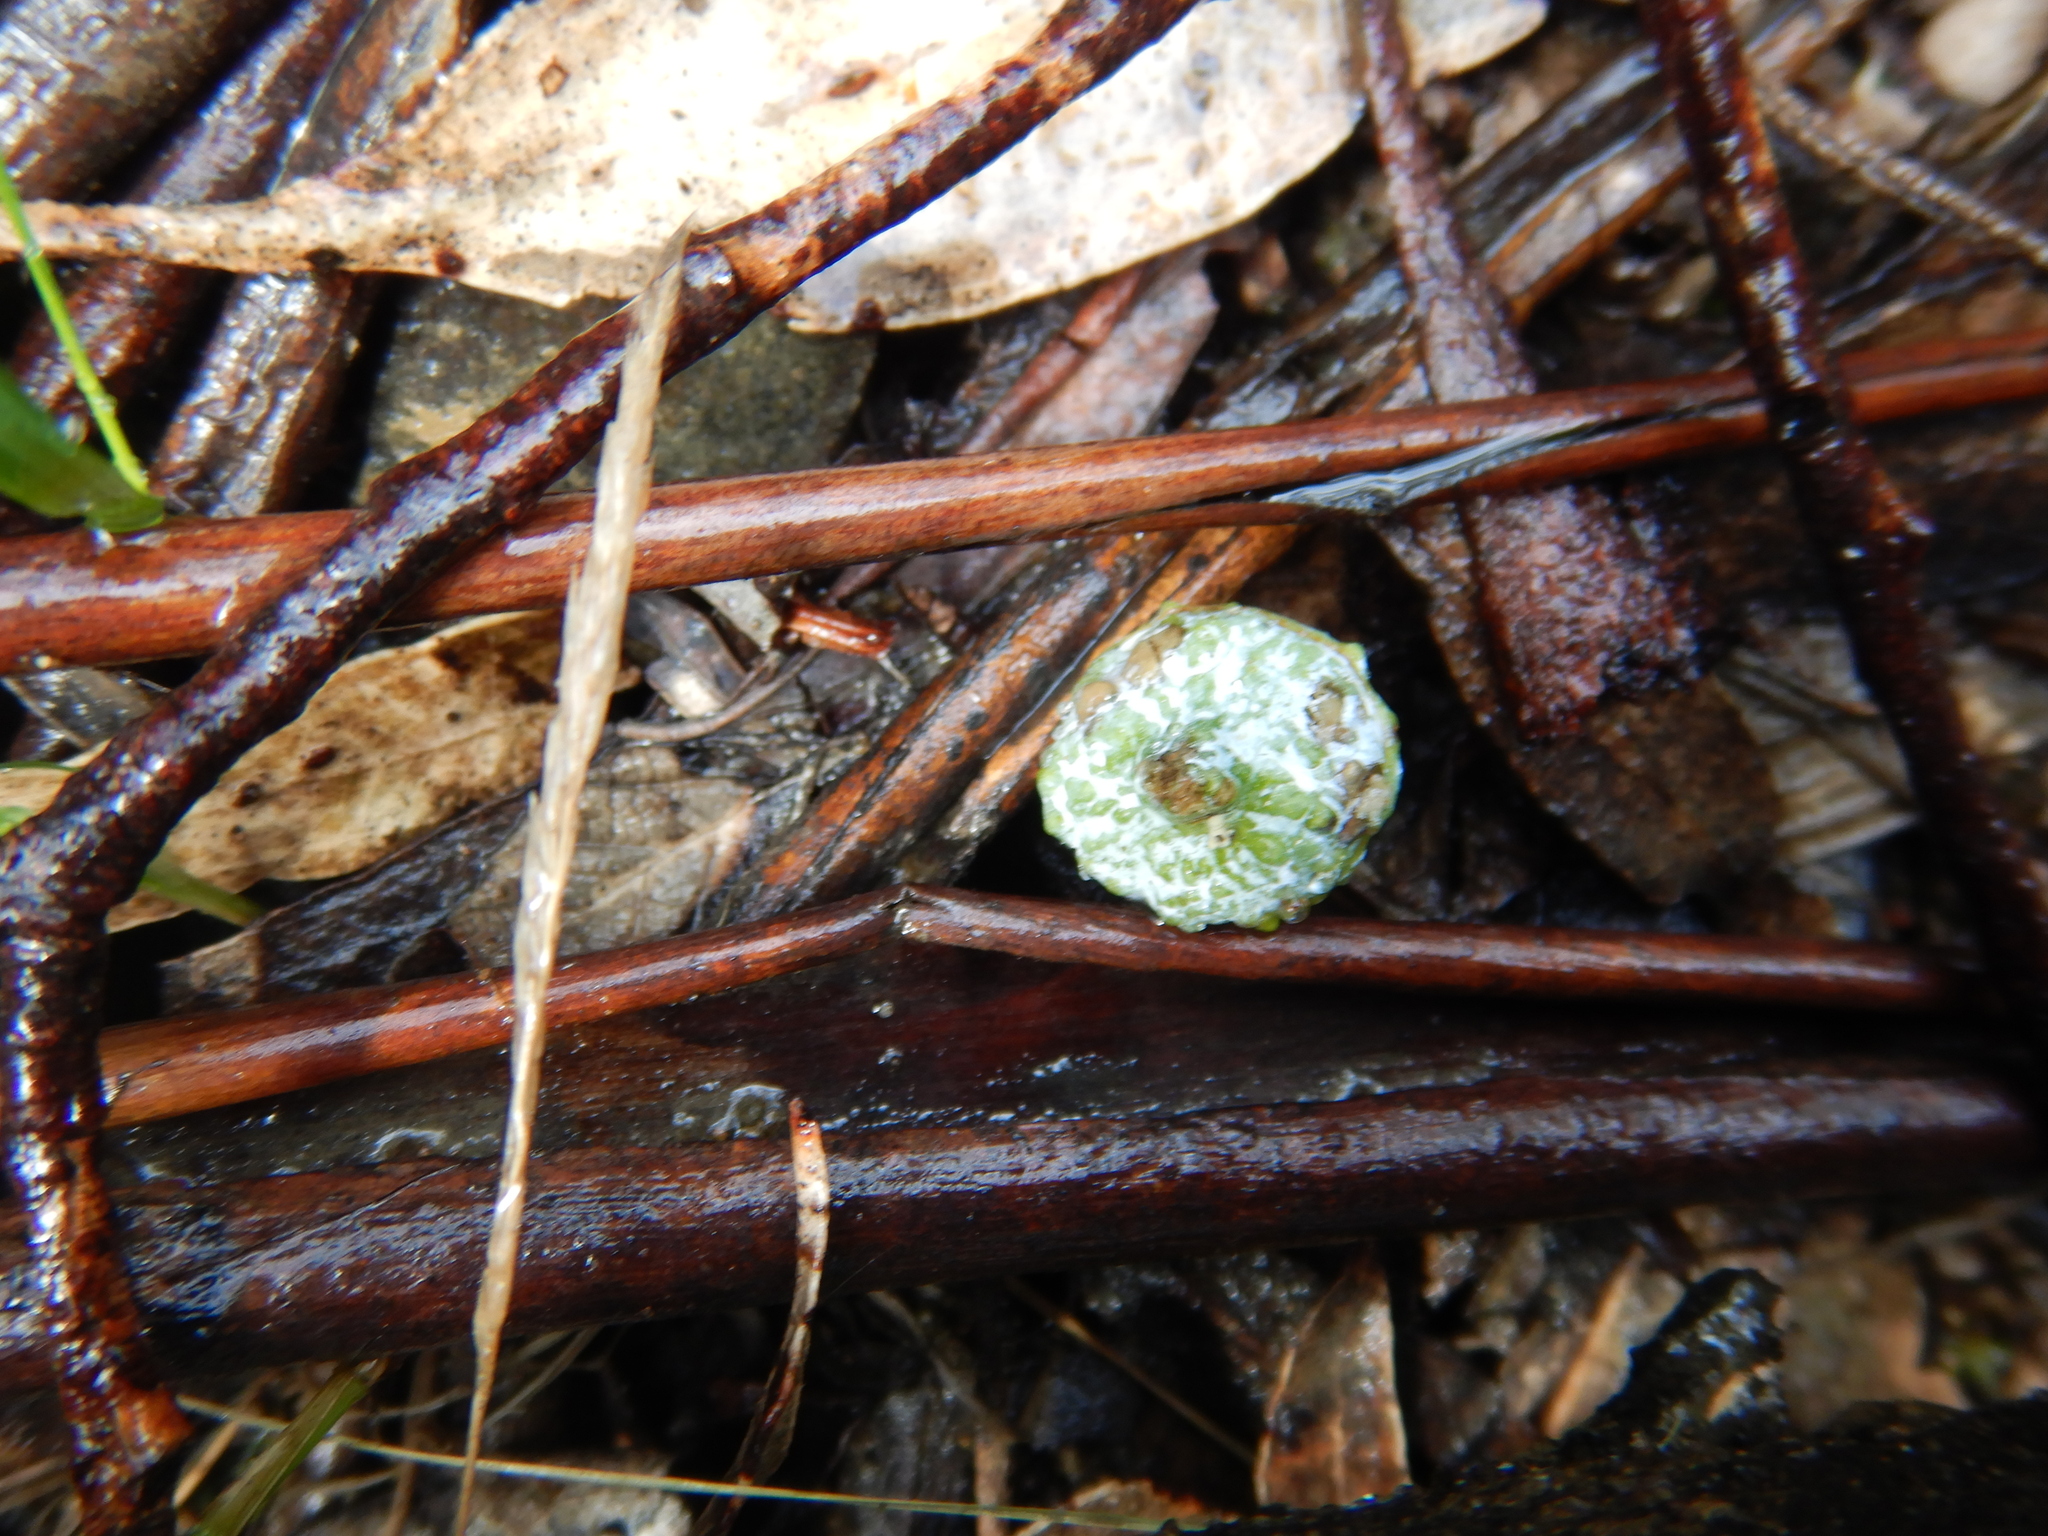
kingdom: Plantae
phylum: Tracheophyta
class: Magnoliopsida
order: Myrtales
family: Myrtaceae
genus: Eucalyptus
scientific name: Eucalyptus globulus
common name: Southern blue-gum
